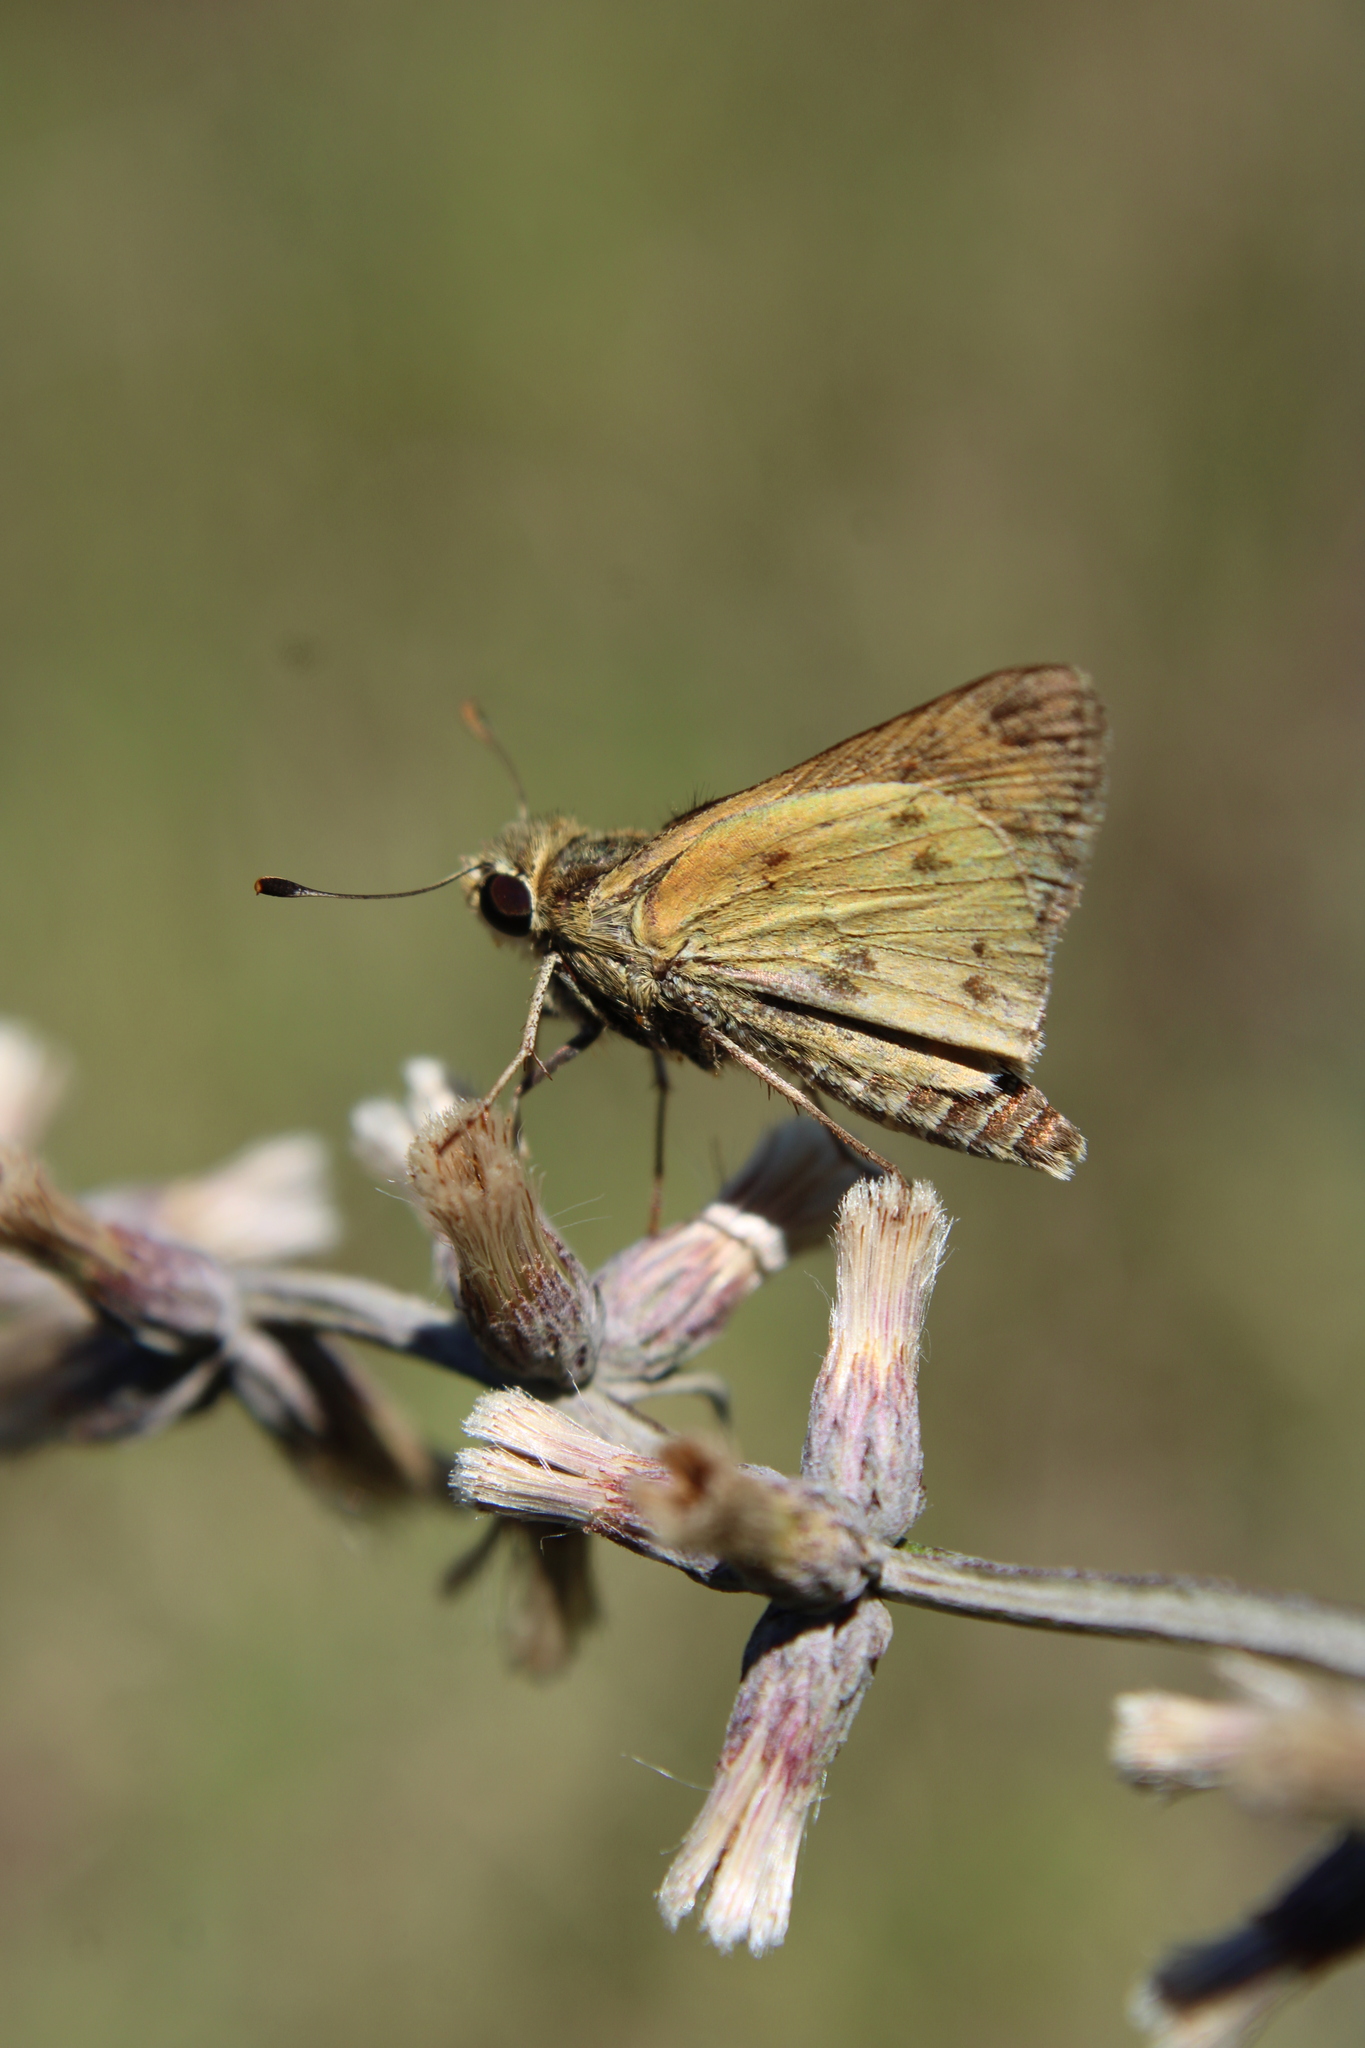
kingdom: Animalia
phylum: Arthropoda
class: Insecta
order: Lepidoptera
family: Hesperiidae
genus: Polites
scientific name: Polites vibex
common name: Whirlabout
